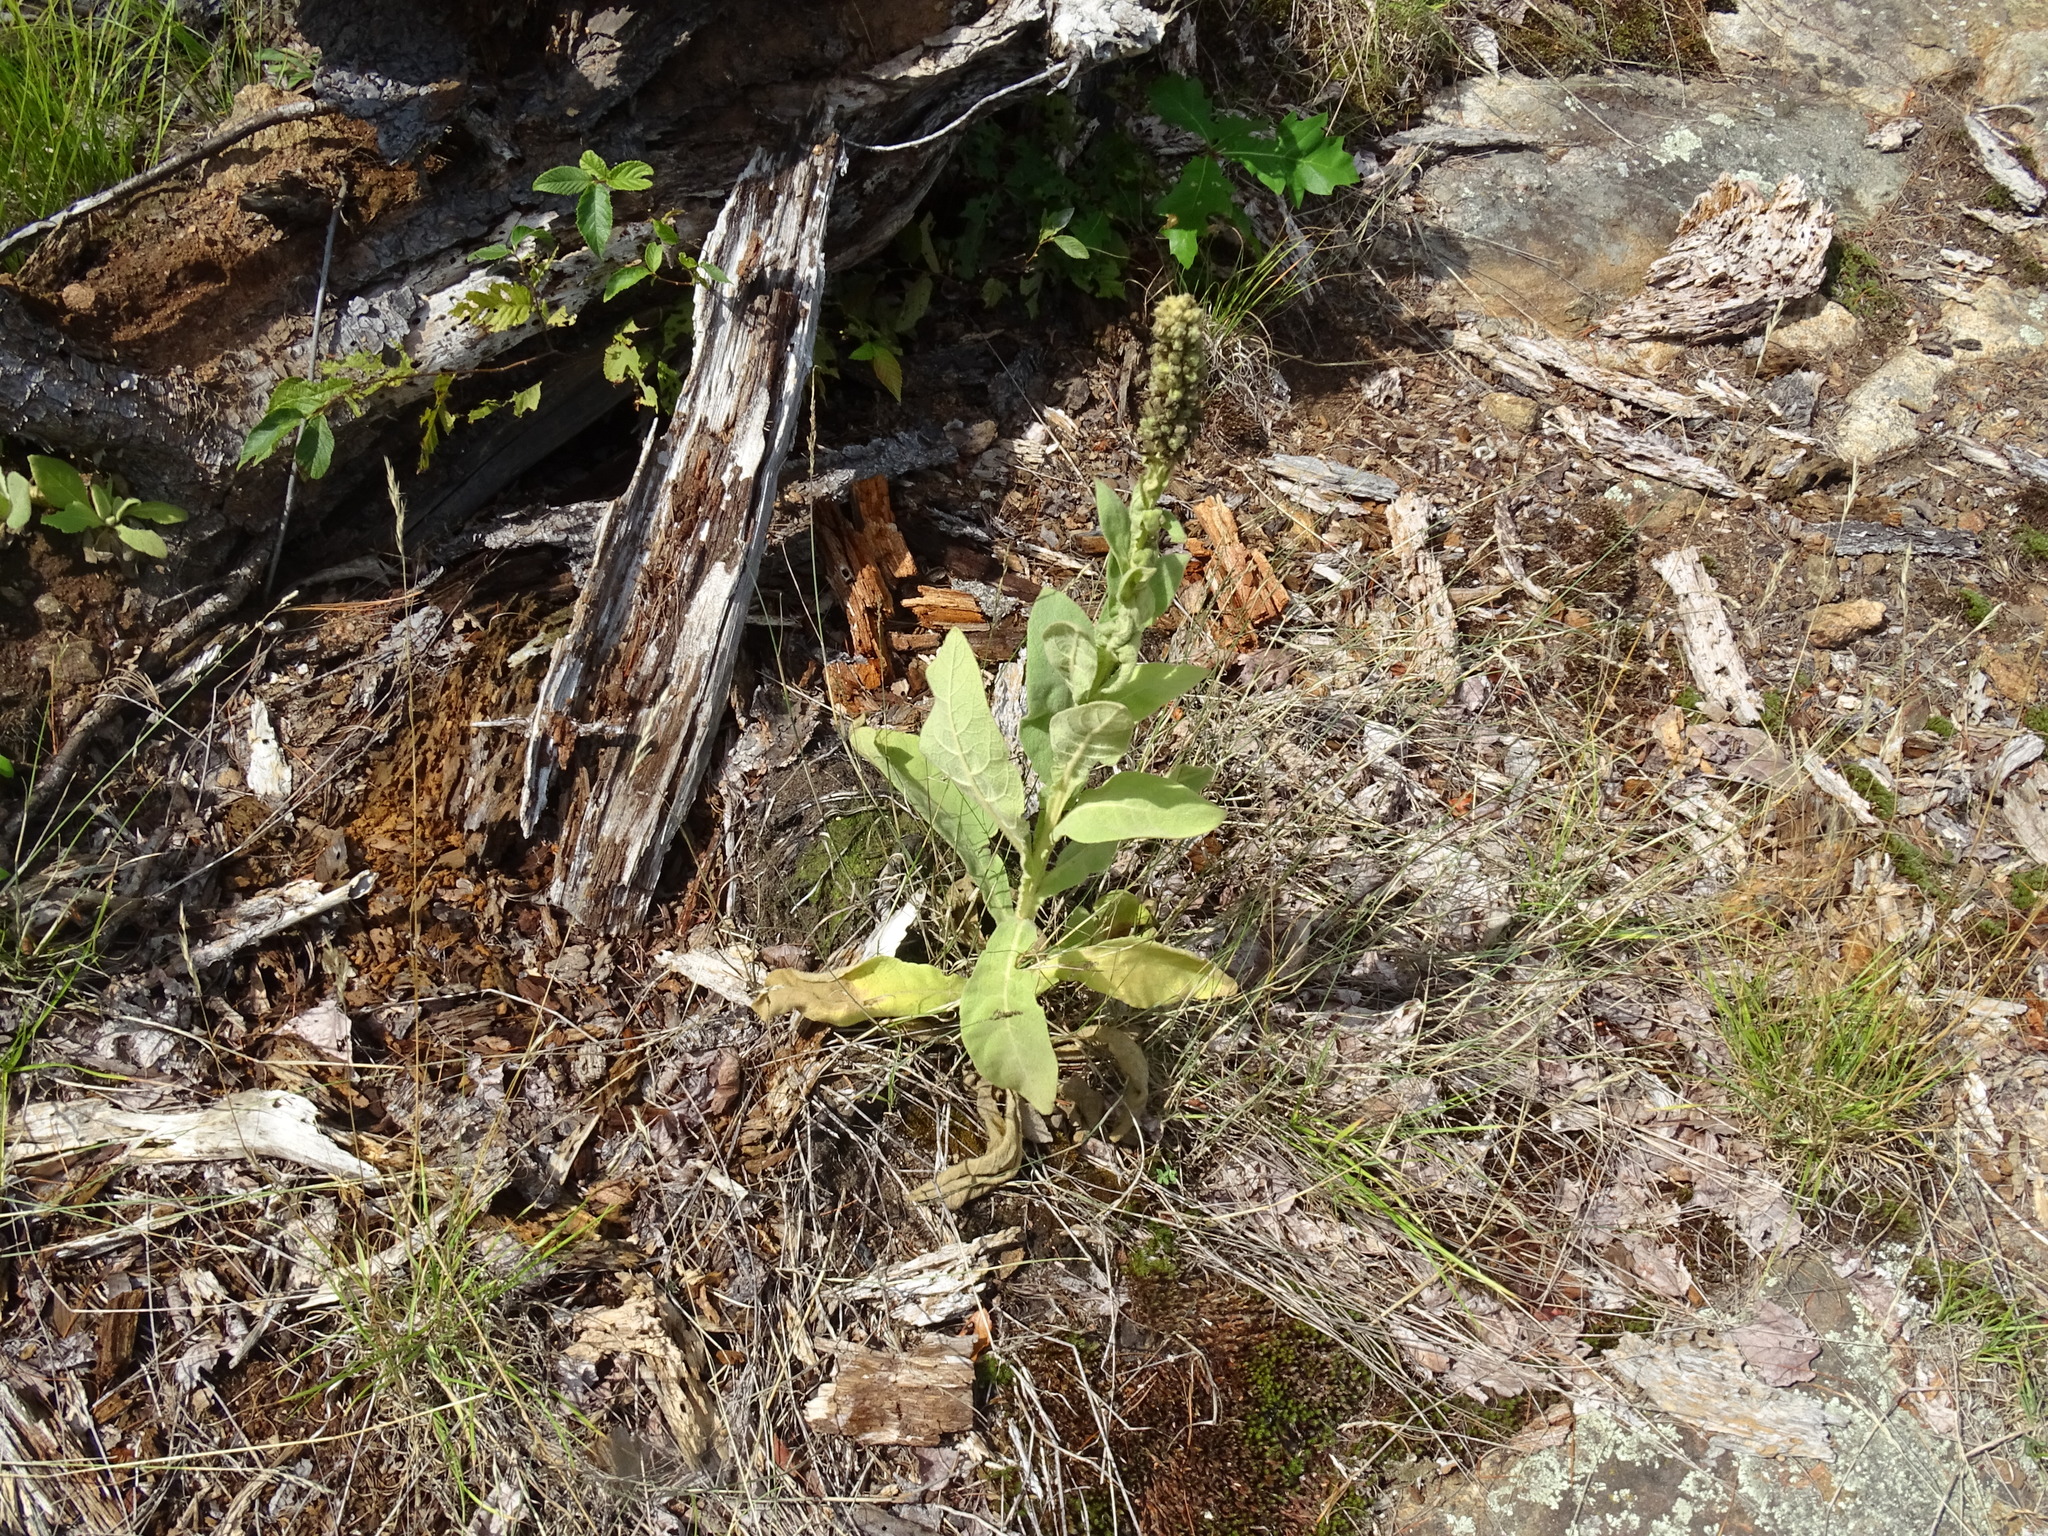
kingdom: Plantae
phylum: Tracheophyta
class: Magnoliopsida
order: Lamiales
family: Scrophulariaceae
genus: Verbascum
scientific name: Verbascum thapsus
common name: Common mullein
